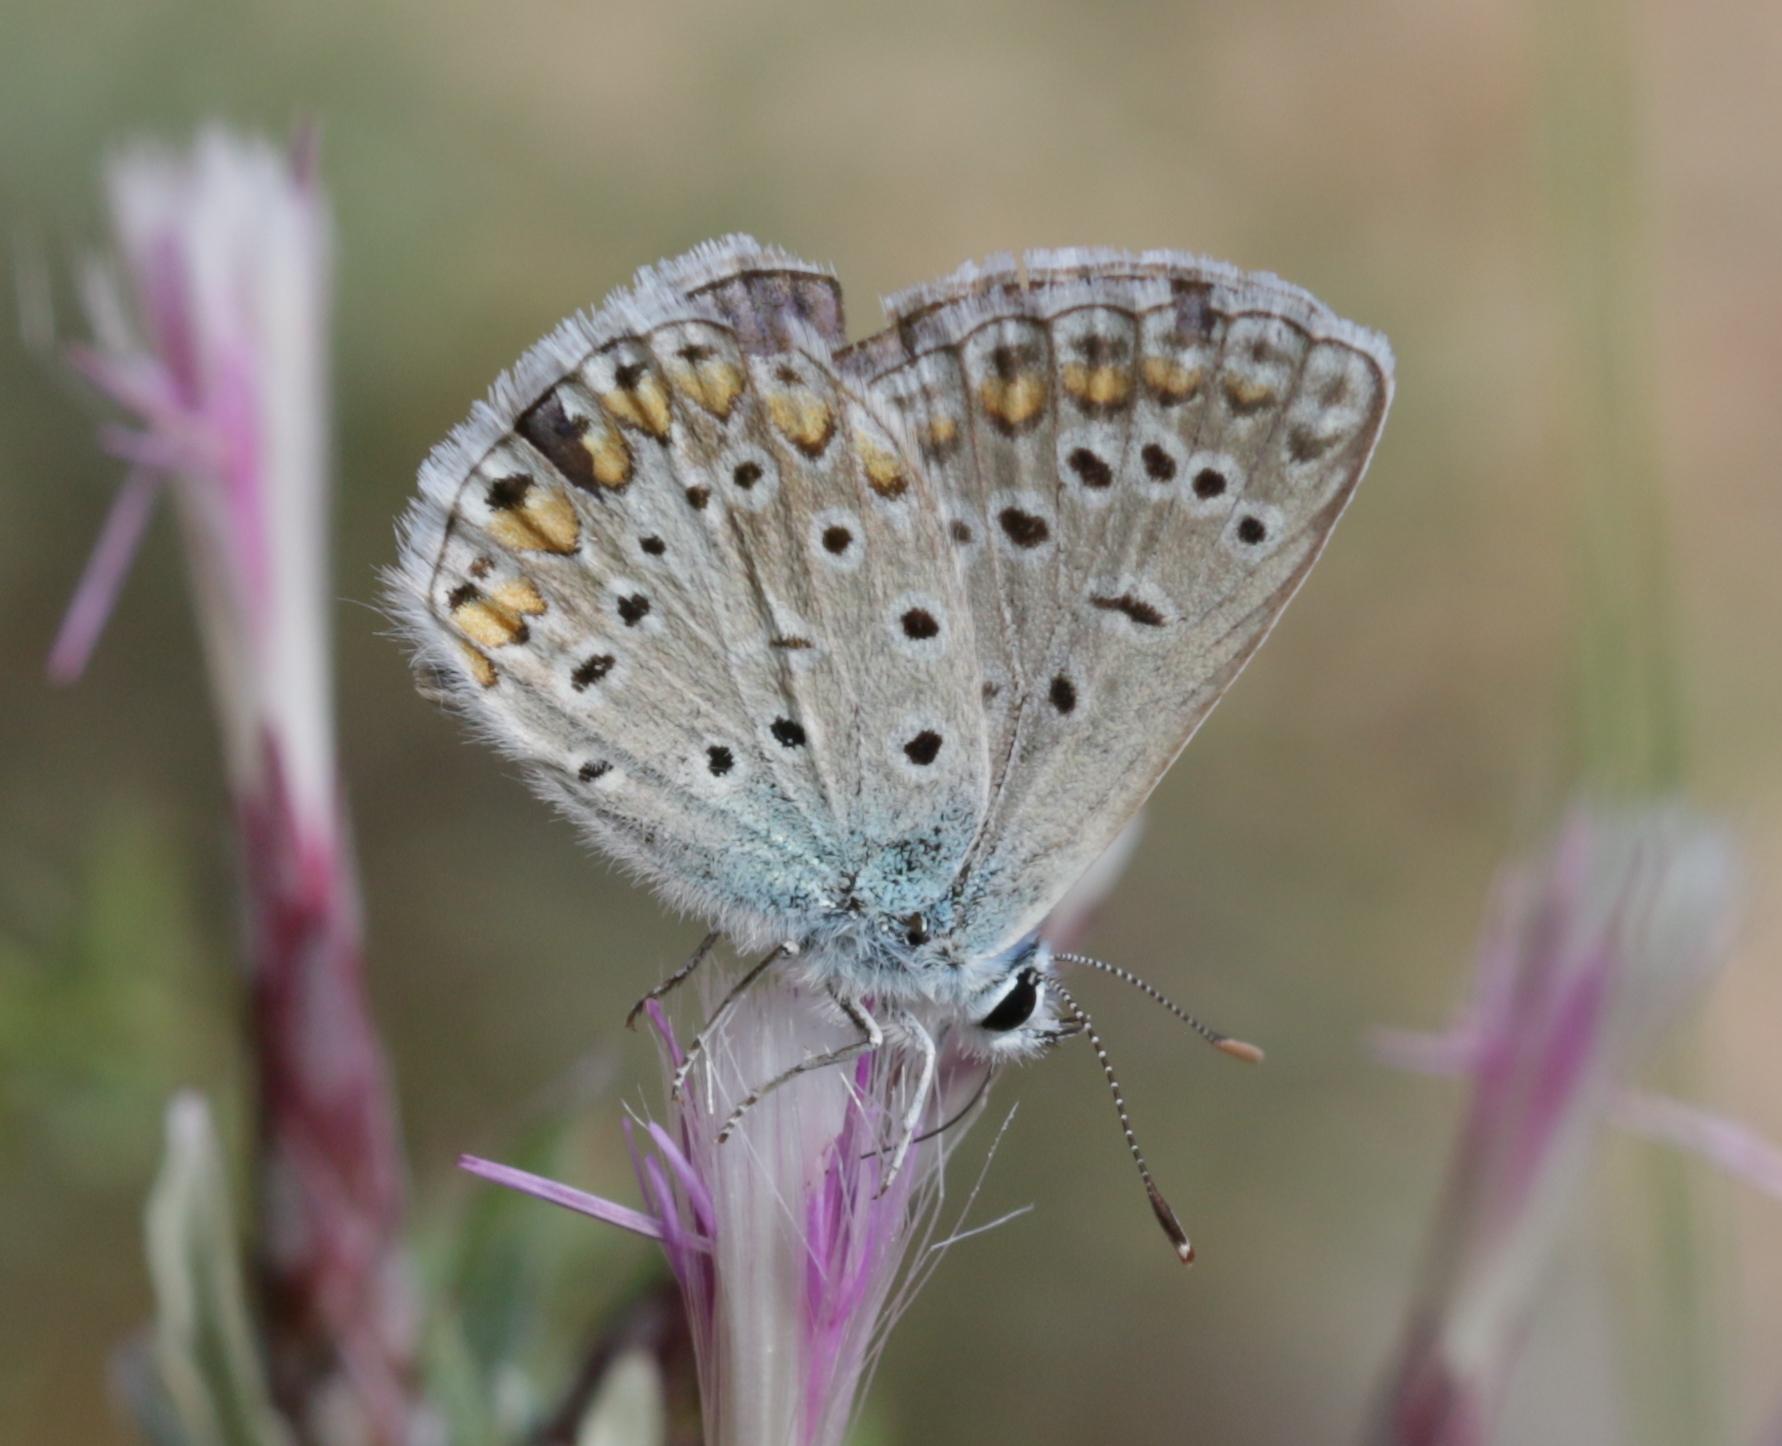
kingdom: Animalia
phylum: Arthropoda
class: Insecta
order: Lepidoptera
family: Lycaenidae
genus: Polyommatus
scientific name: Polyommatus icarus
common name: Common blue
